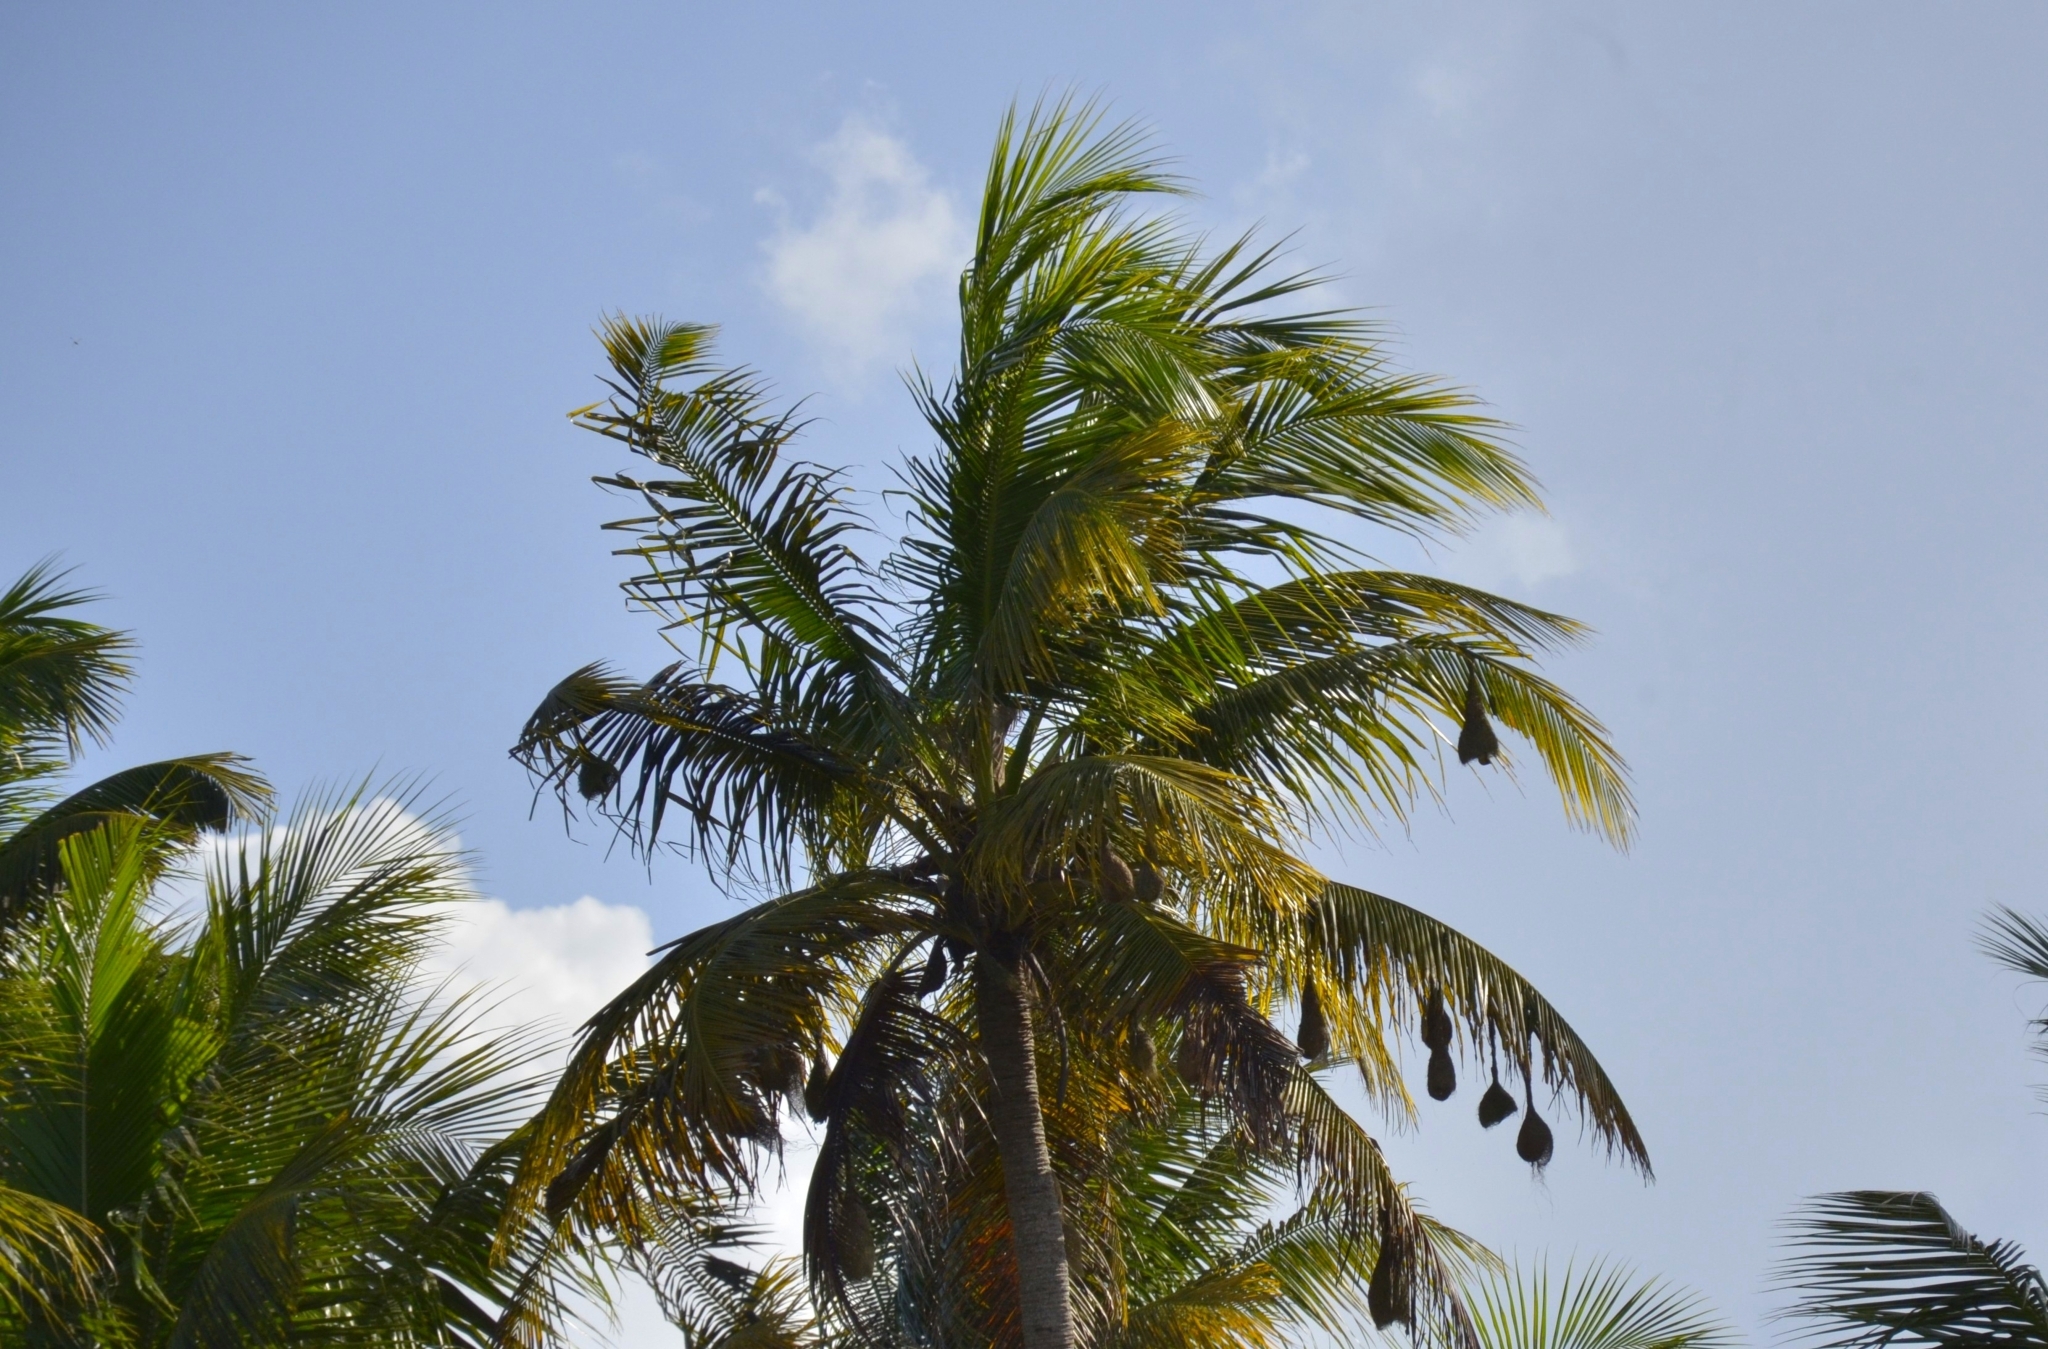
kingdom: Animalia
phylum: Chordata
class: Aves
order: Passeriformes
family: Ploceidae
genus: Ploceus
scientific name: Ploceus philippinus
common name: Baya weaver
